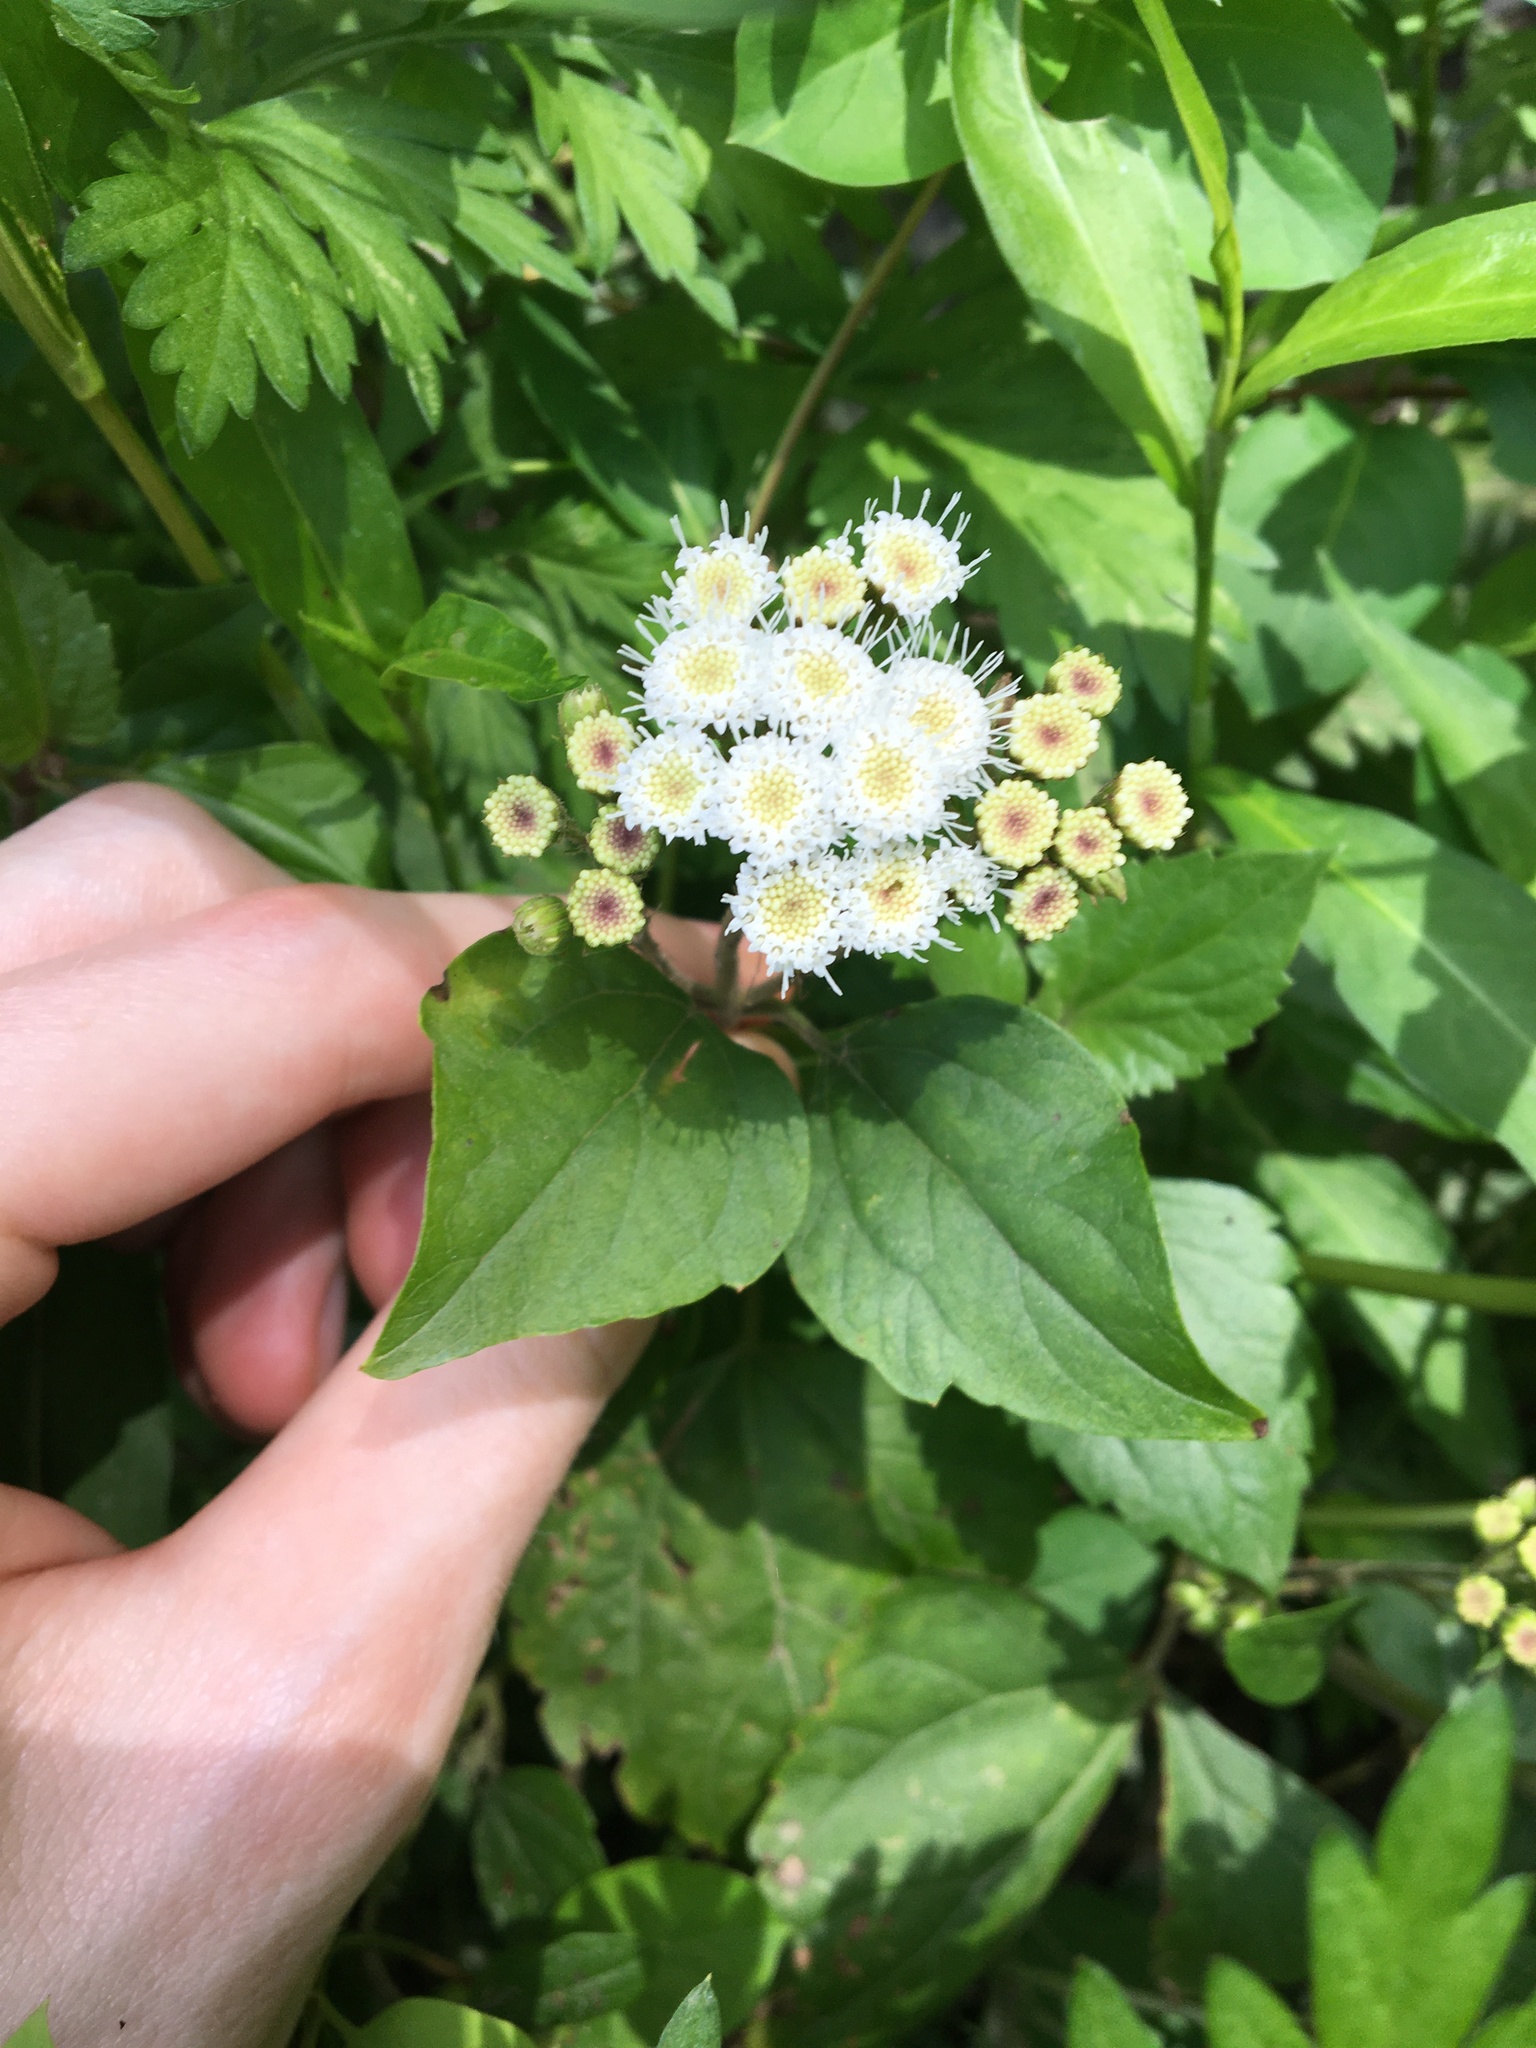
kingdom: Plantae
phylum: Tracheophyta
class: Magnoliopsida
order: Asterales
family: Asteraceae
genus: Ageratina
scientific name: Ageratina adenophora
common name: Sticky snakeroot
